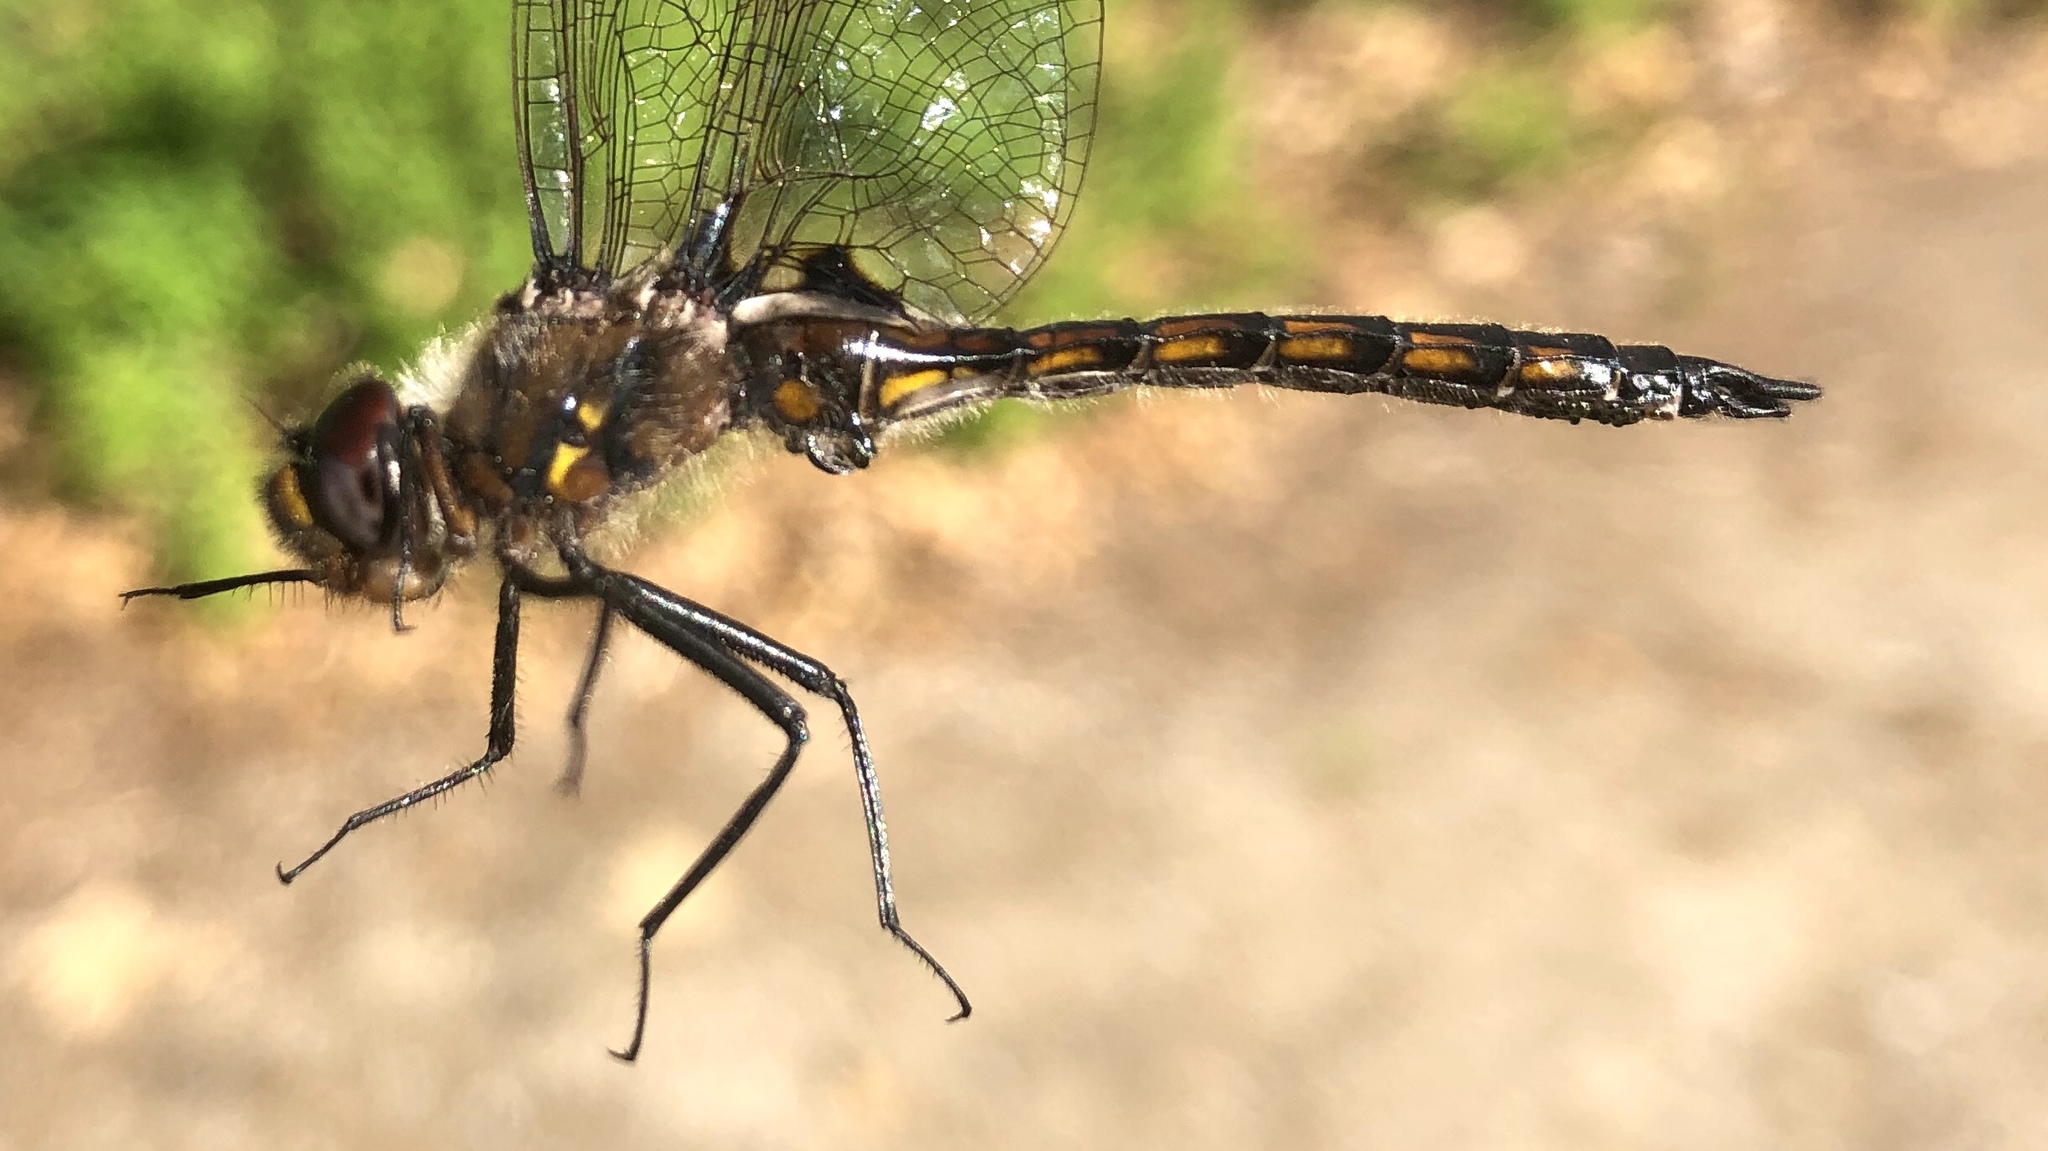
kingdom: Animalia
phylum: Arthropoda
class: Insecta
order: Odonata
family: Corduliidae
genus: Epitheca
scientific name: Epitheca cynosura
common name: Common baskettail
